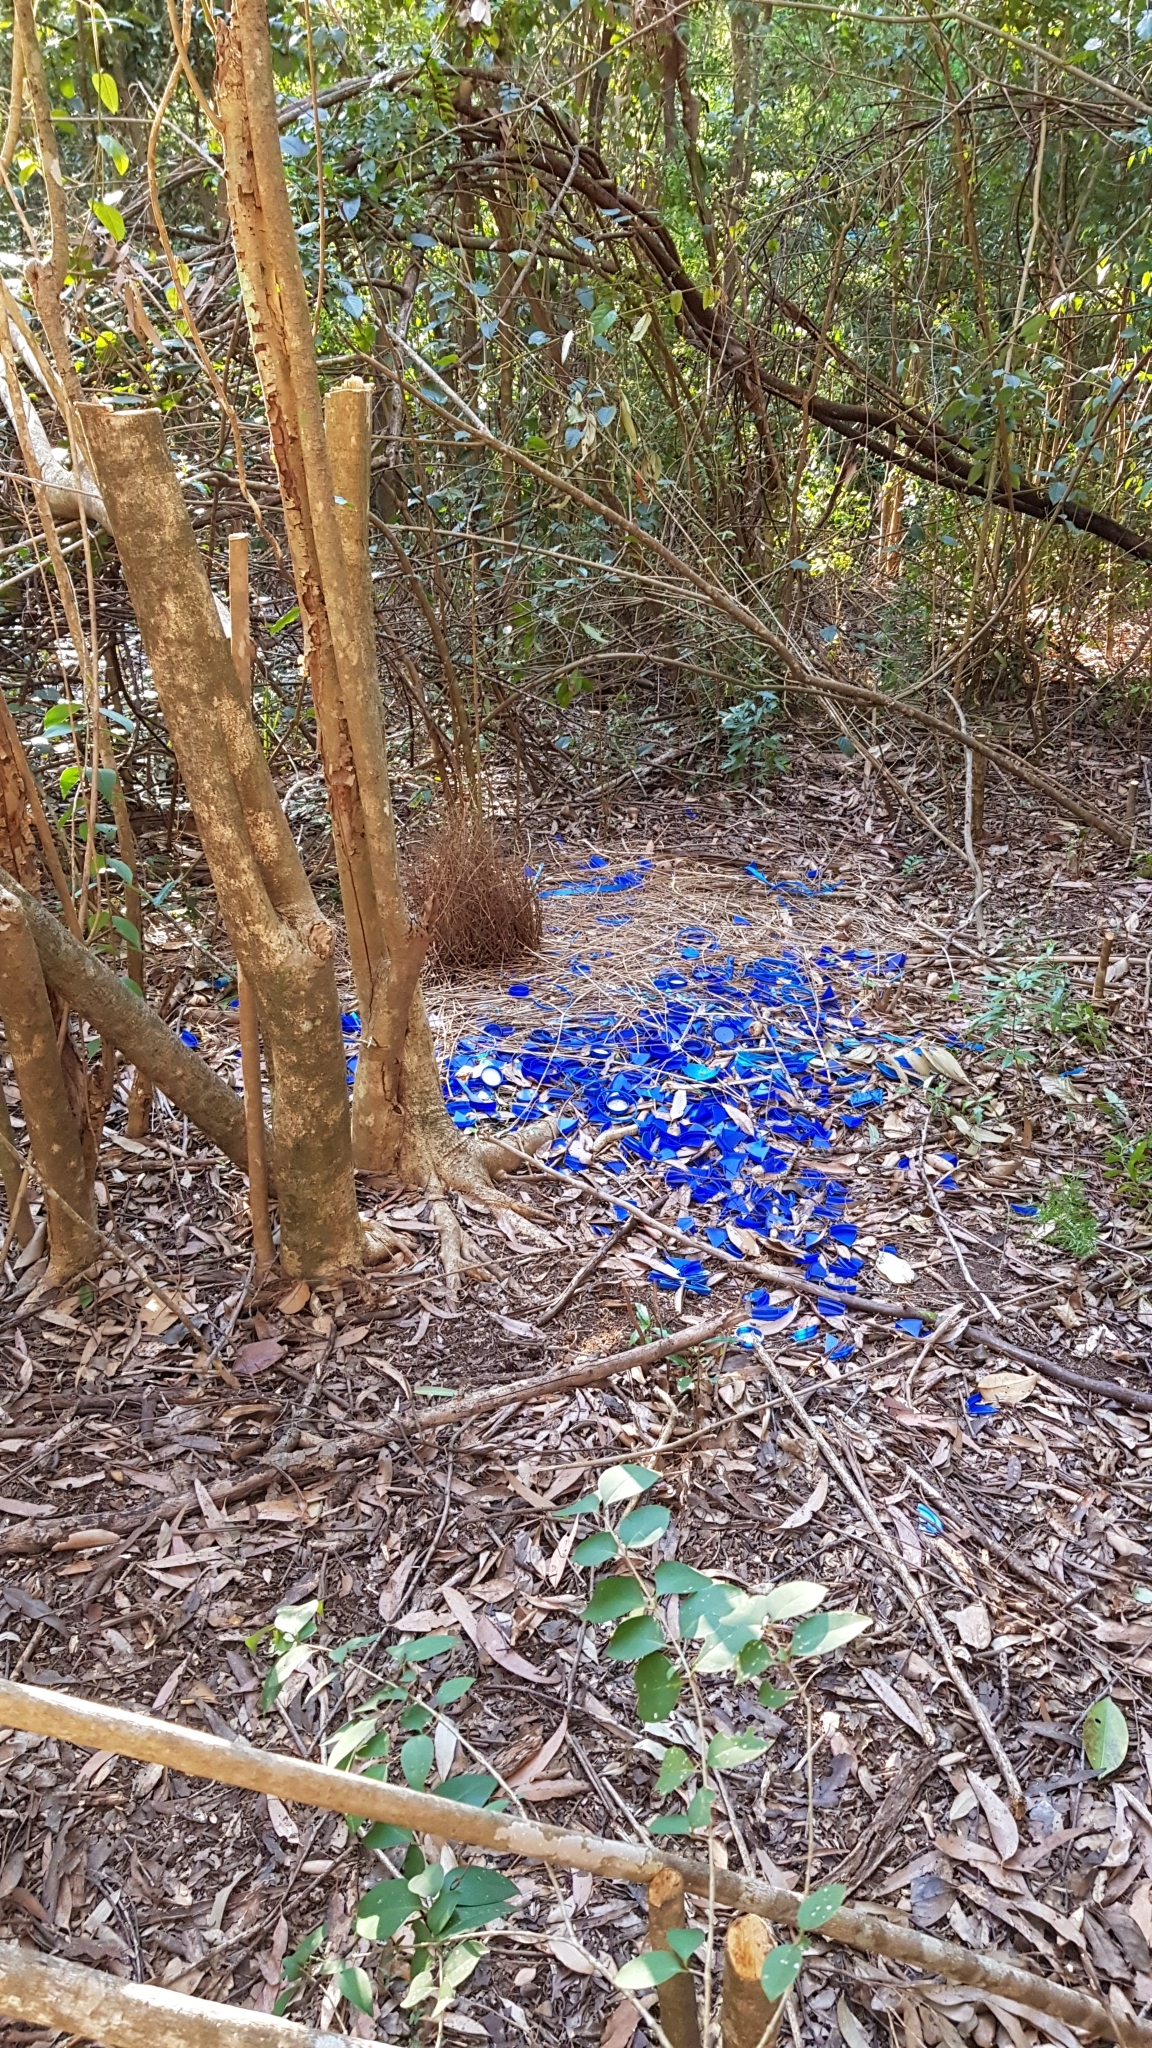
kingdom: Animalia
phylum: Chordata
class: Aves
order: Passeriformes
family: Ptilonorhynchidae
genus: Ptilonorhynchus
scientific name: Ptilonorhynchus violaceus
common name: Satin bowerbird
